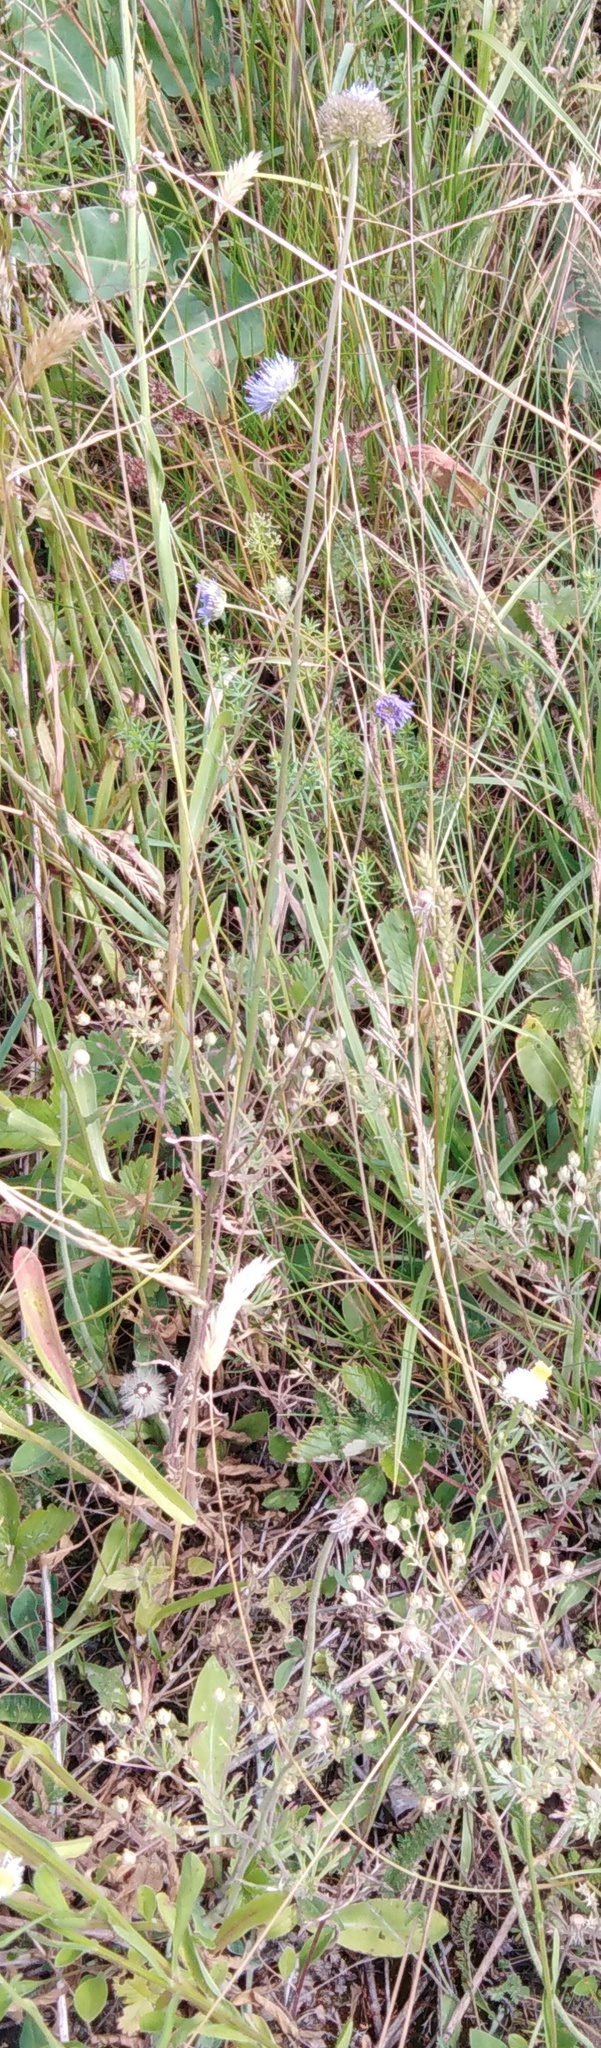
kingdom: Plantae
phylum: Tracheophyta
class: Magnoliopsida
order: Asterales
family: Campanulaceae
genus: Jasione
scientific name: Jasione montana
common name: Sheep's-bit
